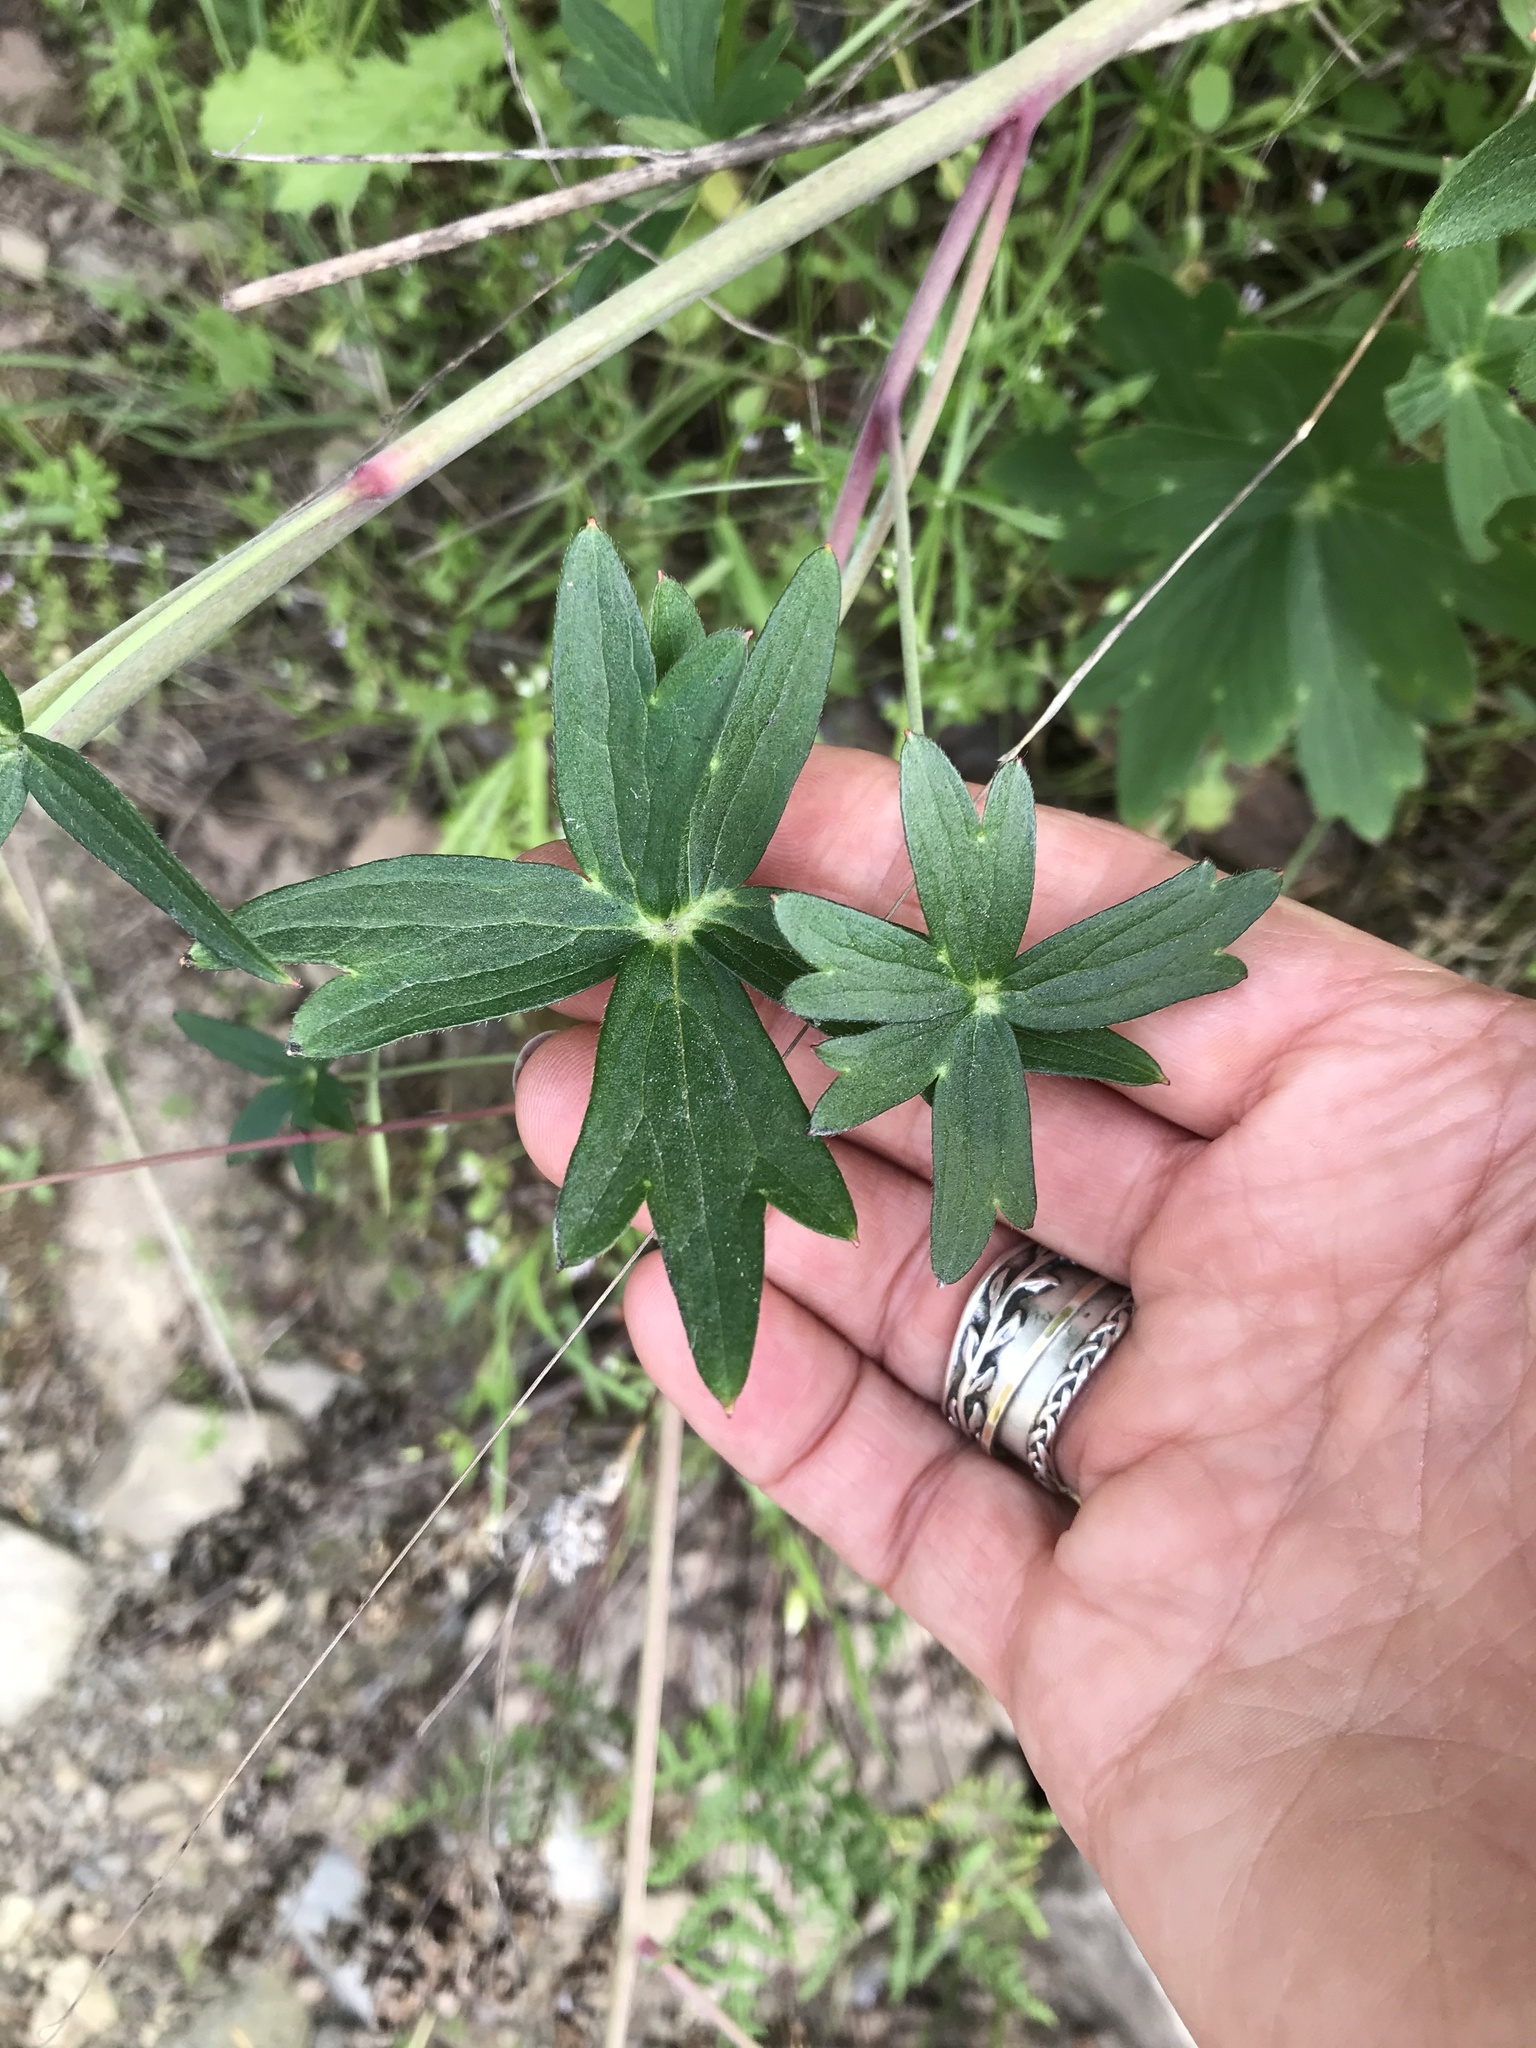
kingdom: Plantae
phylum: Tracheophyta
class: Magnoliopsida
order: Ranunculales
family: Ranunculaceae
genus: Delphinium
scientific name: Delphinium nudicaule
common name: Red larkspur
